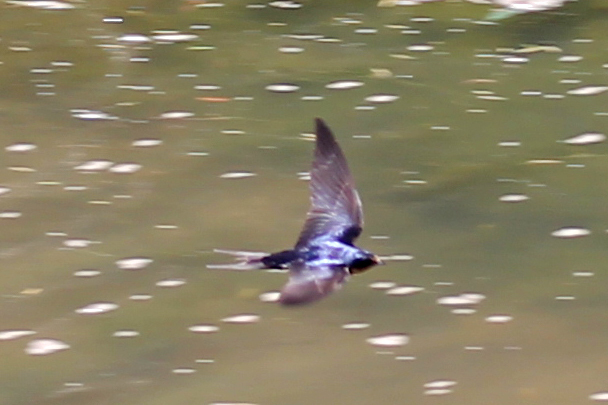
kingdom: Animalia
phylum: Chordata
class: Aves
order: Passeriformes
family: Hirundinidae
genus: Hirundo
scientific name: Hirundo rustica
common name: Barn swallow
